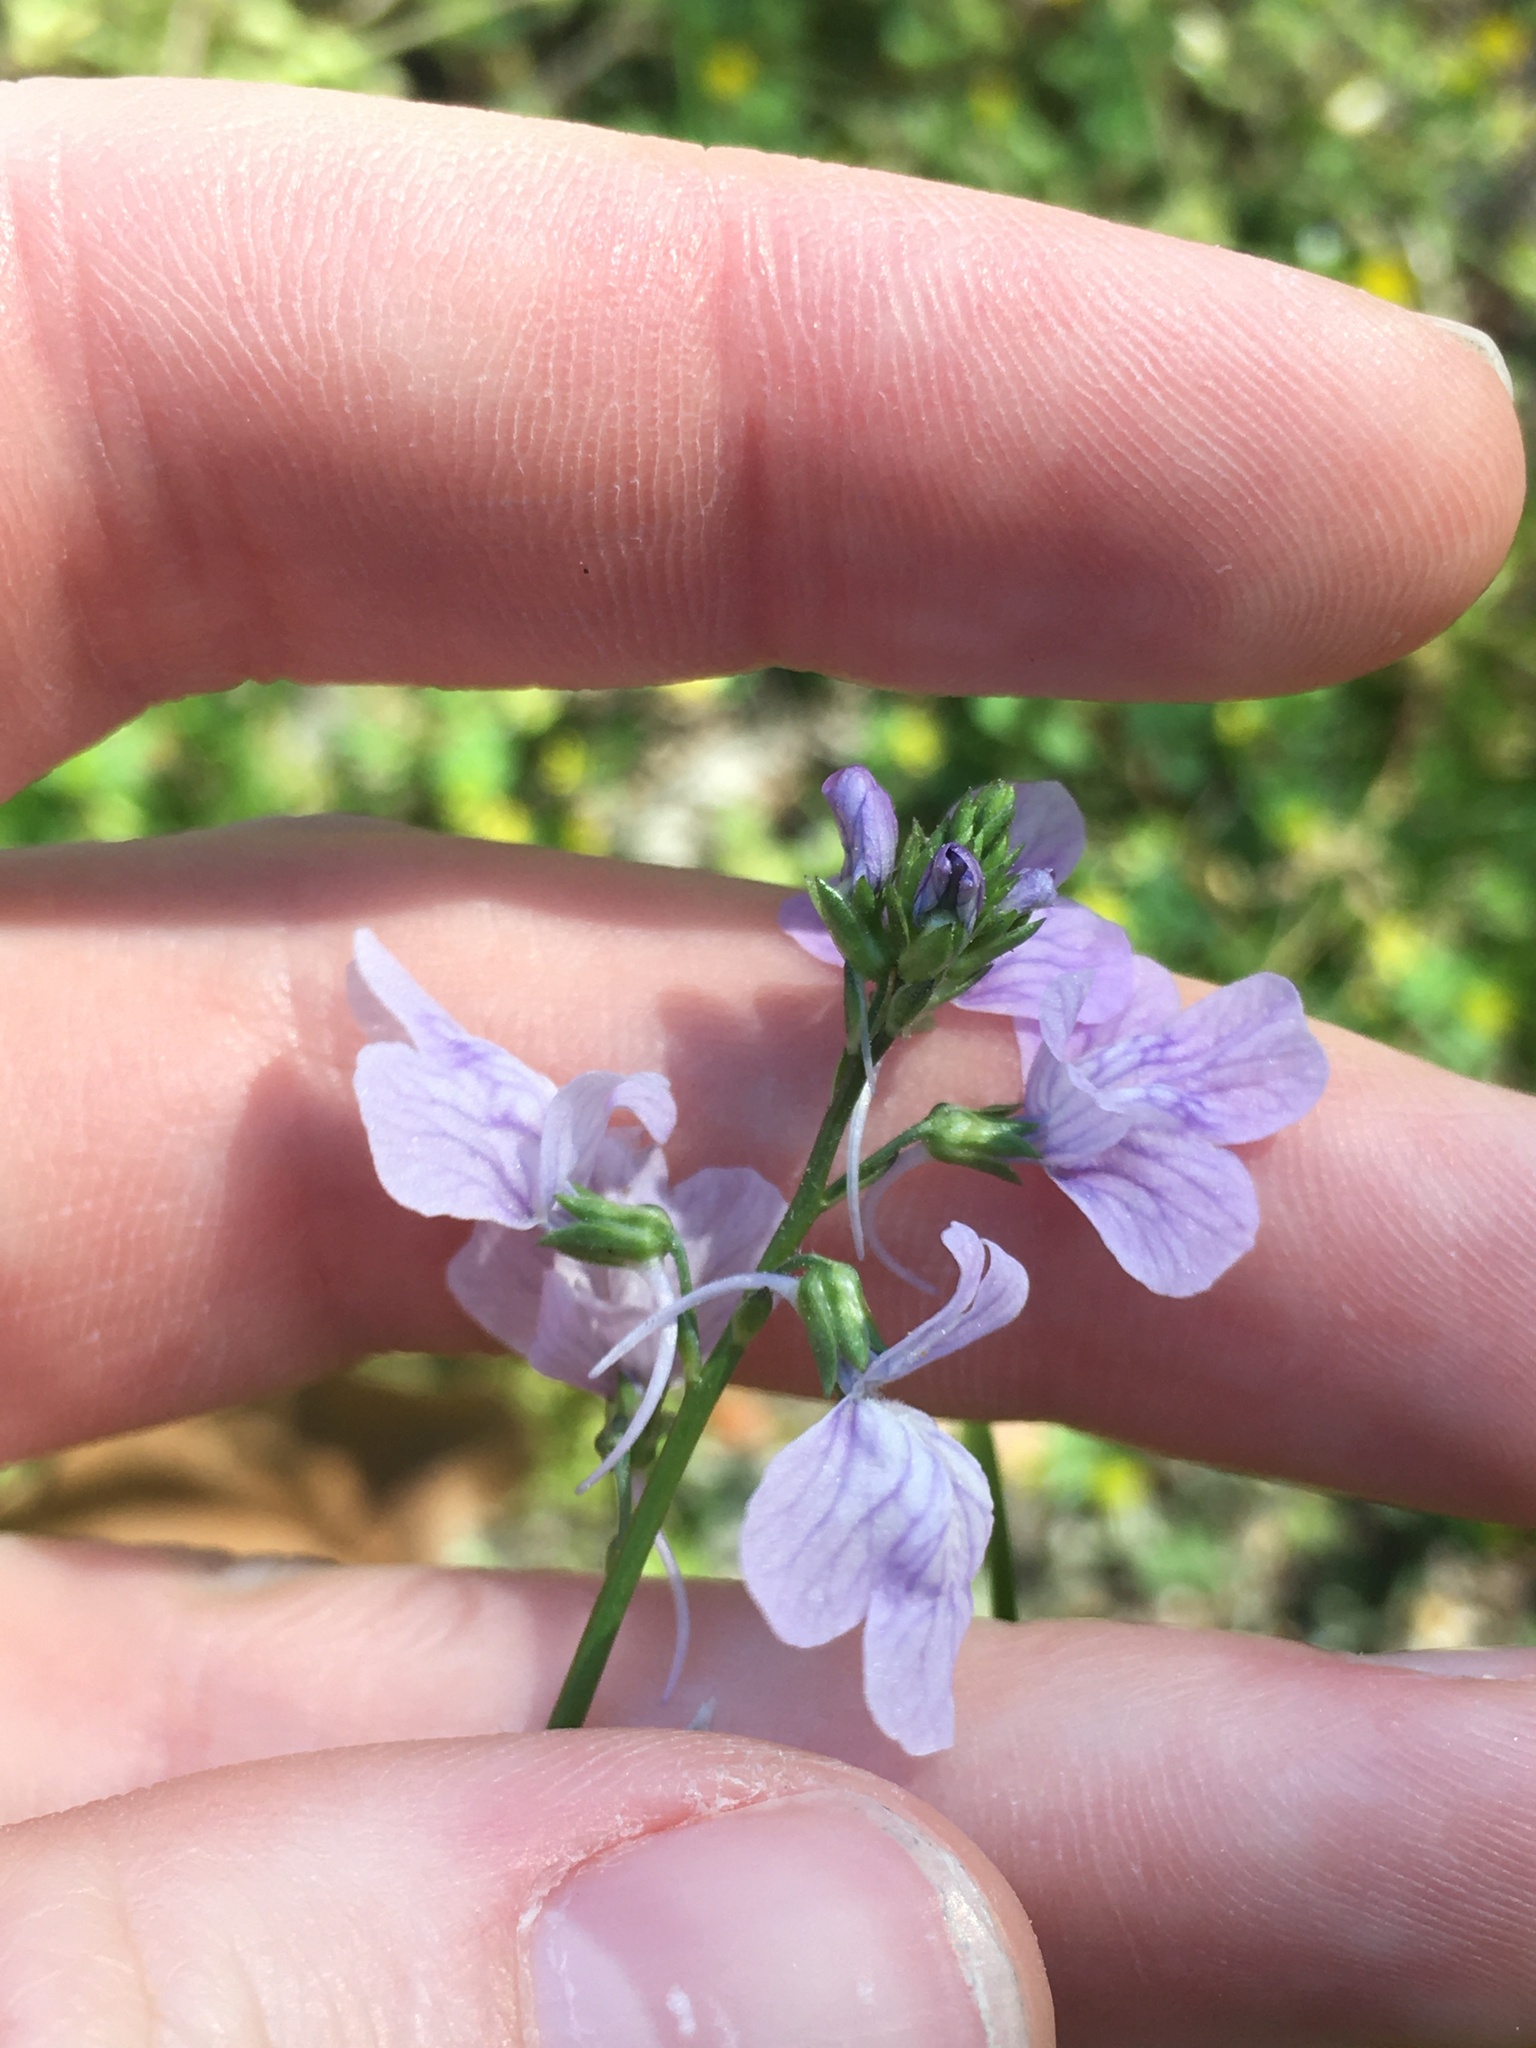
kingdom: Plantae
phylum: Tracheophyta
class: Magnoliopsida
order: Lamiales
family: Plantaginaceae
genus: Nuttallanthus
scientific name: Nuttallanthus texanus
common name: Texas toadflax
